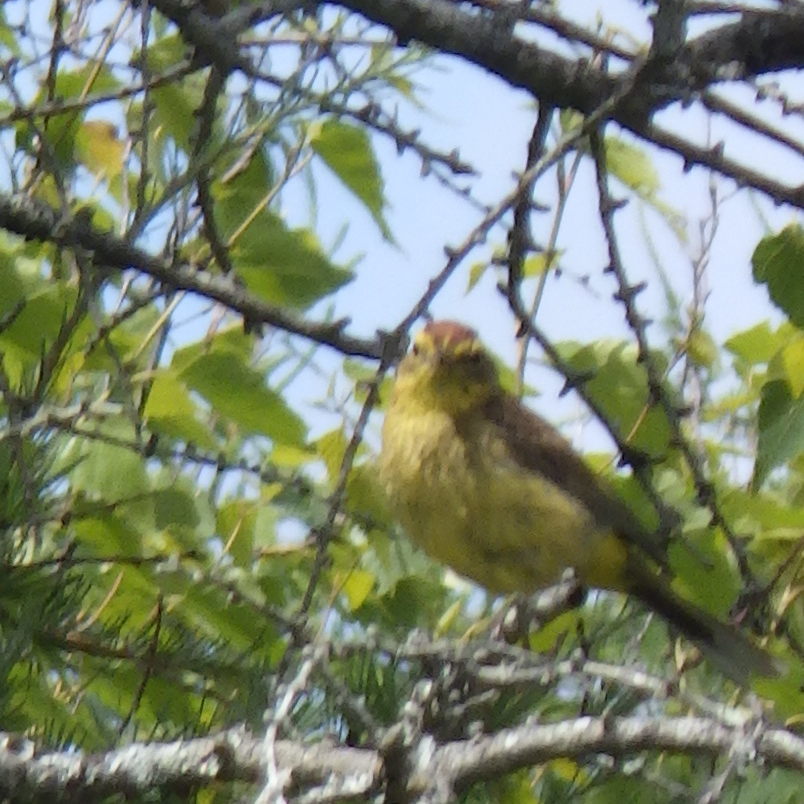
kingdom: Animalia
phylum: Chordata
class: Aves
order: Passeriformes
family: Parulidae
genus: Setophaga
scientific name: Setophaga palmarum
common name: Palm warbler
